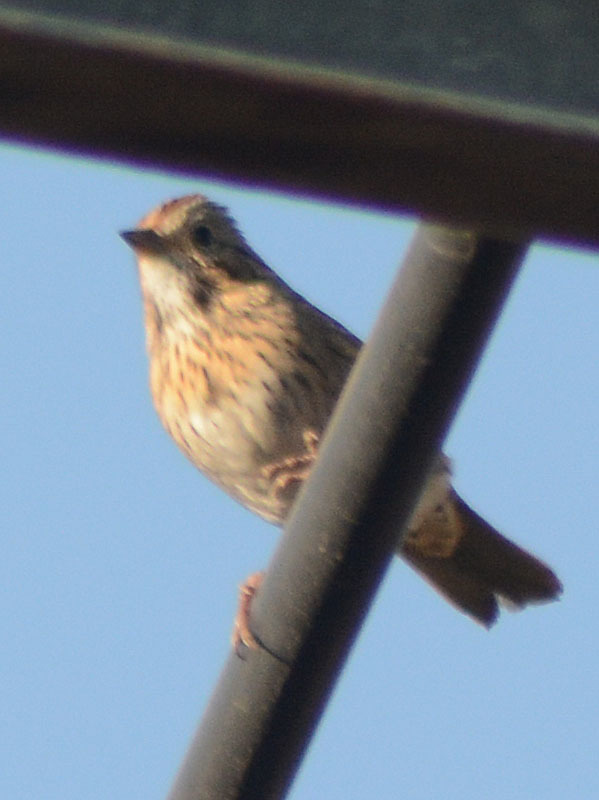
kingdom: Animalia
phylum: Chordata
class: Aves
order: Passeriformes
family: Passerellidae
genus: Melospiza
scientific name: Melospiza lincolnii
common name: Lincoln's sparrow
